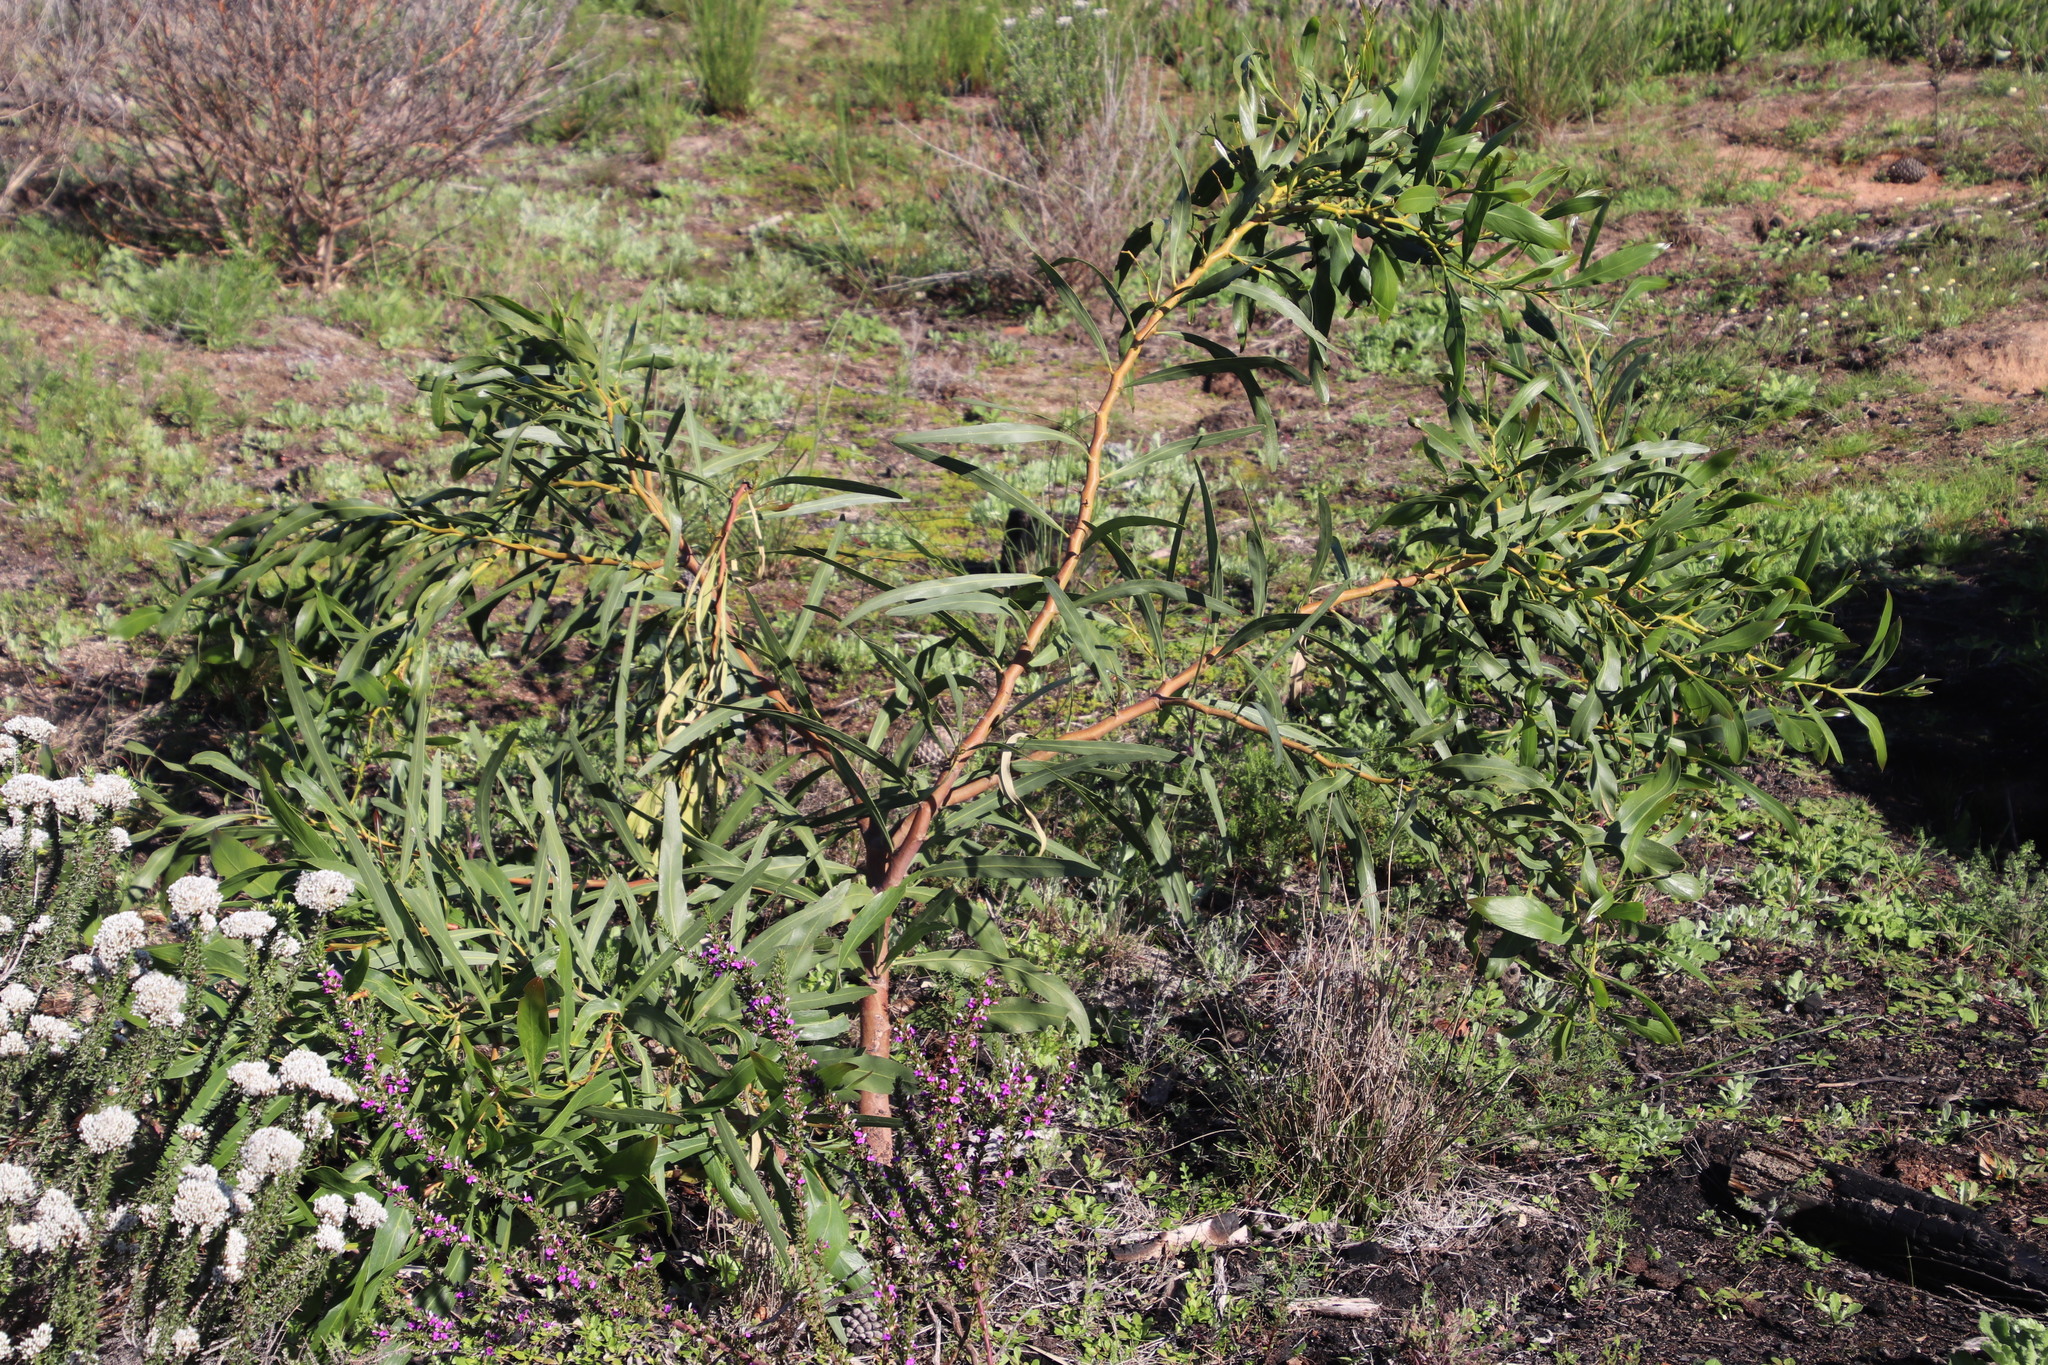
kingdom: Plantae
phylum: Tracheophyta
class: Magnoliopsida
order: Fabales
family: Fabaceae
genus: Acacia
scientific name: Acacia saligna
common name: Orange wattle
